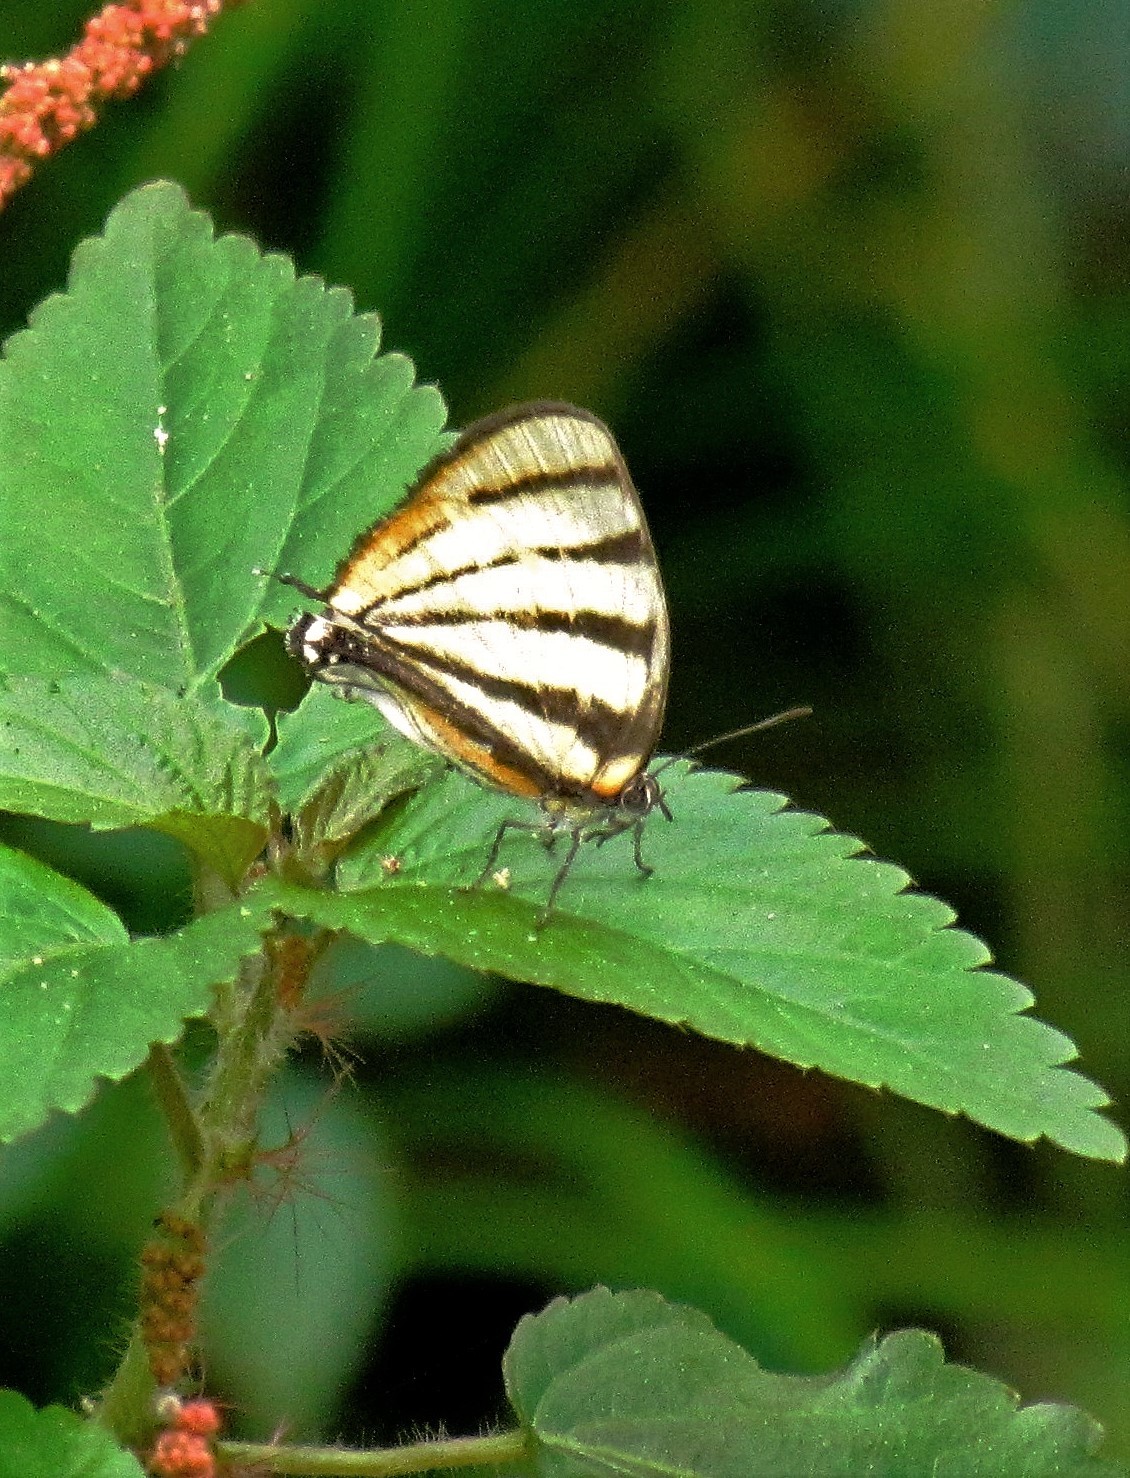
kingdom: Animalia
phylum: Arthropoda
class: Insecta
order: Lepidoptera
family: Lycaenidae
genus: Arawacus
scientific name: Arawacus separata
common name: Separated stripestreak
